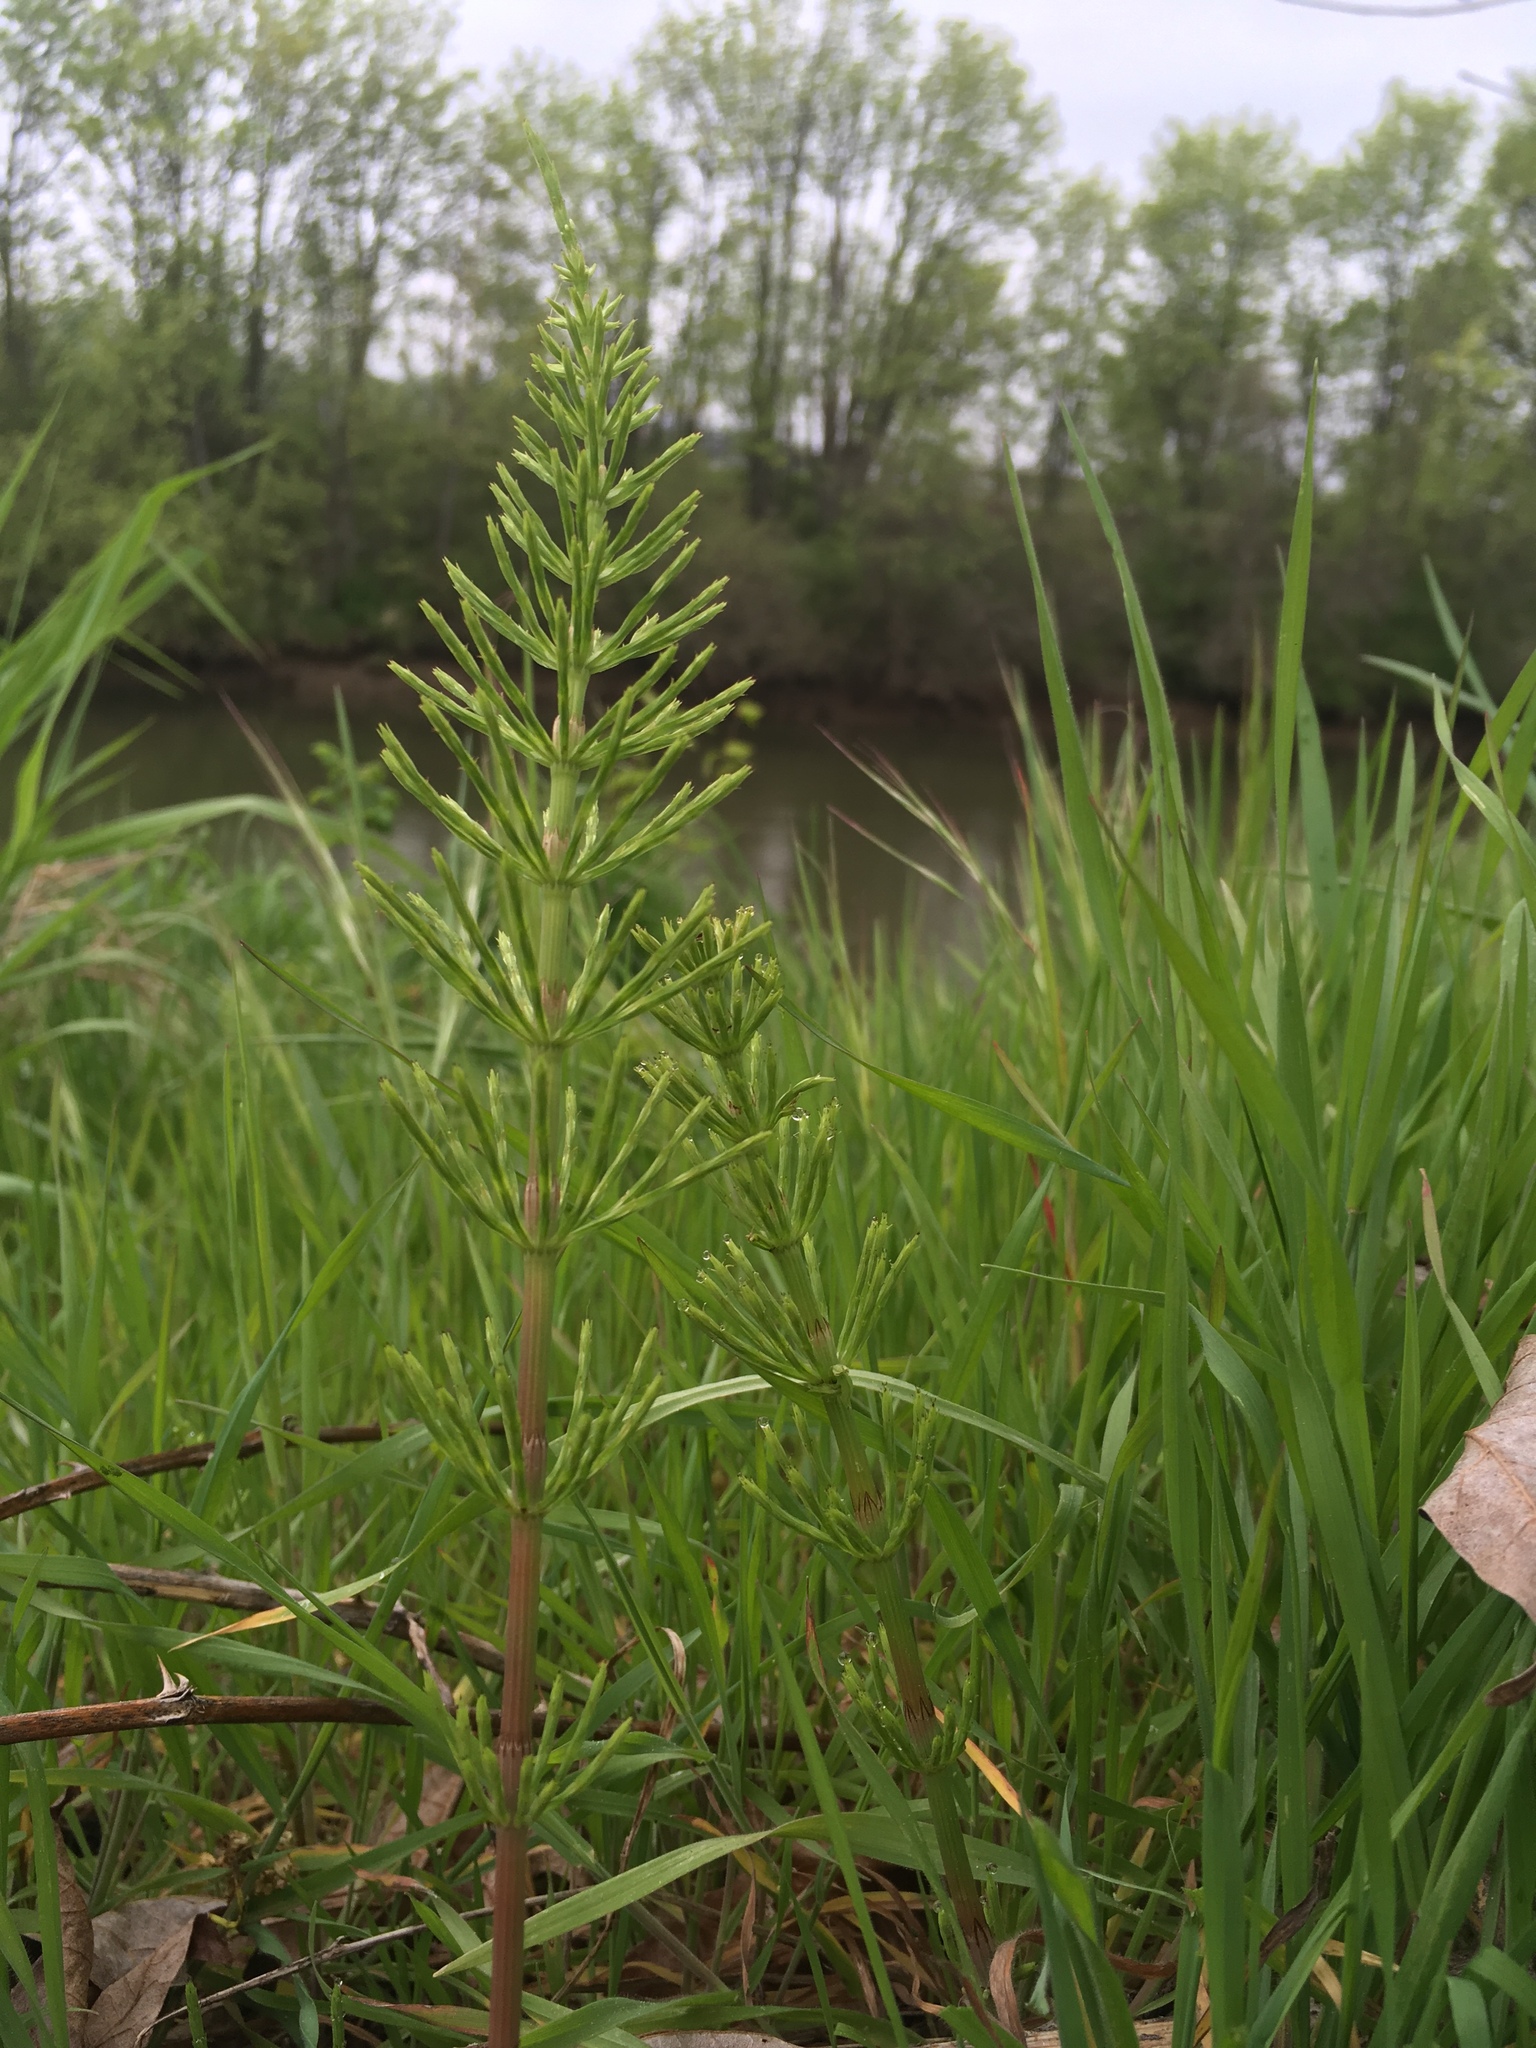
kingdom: Plantae
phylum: Tracheophyta
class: Polypodiopsida
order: Equisetales
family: Equisetaceae
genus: Equisetum
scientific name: Equisetum arvense
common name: Field horsetail
